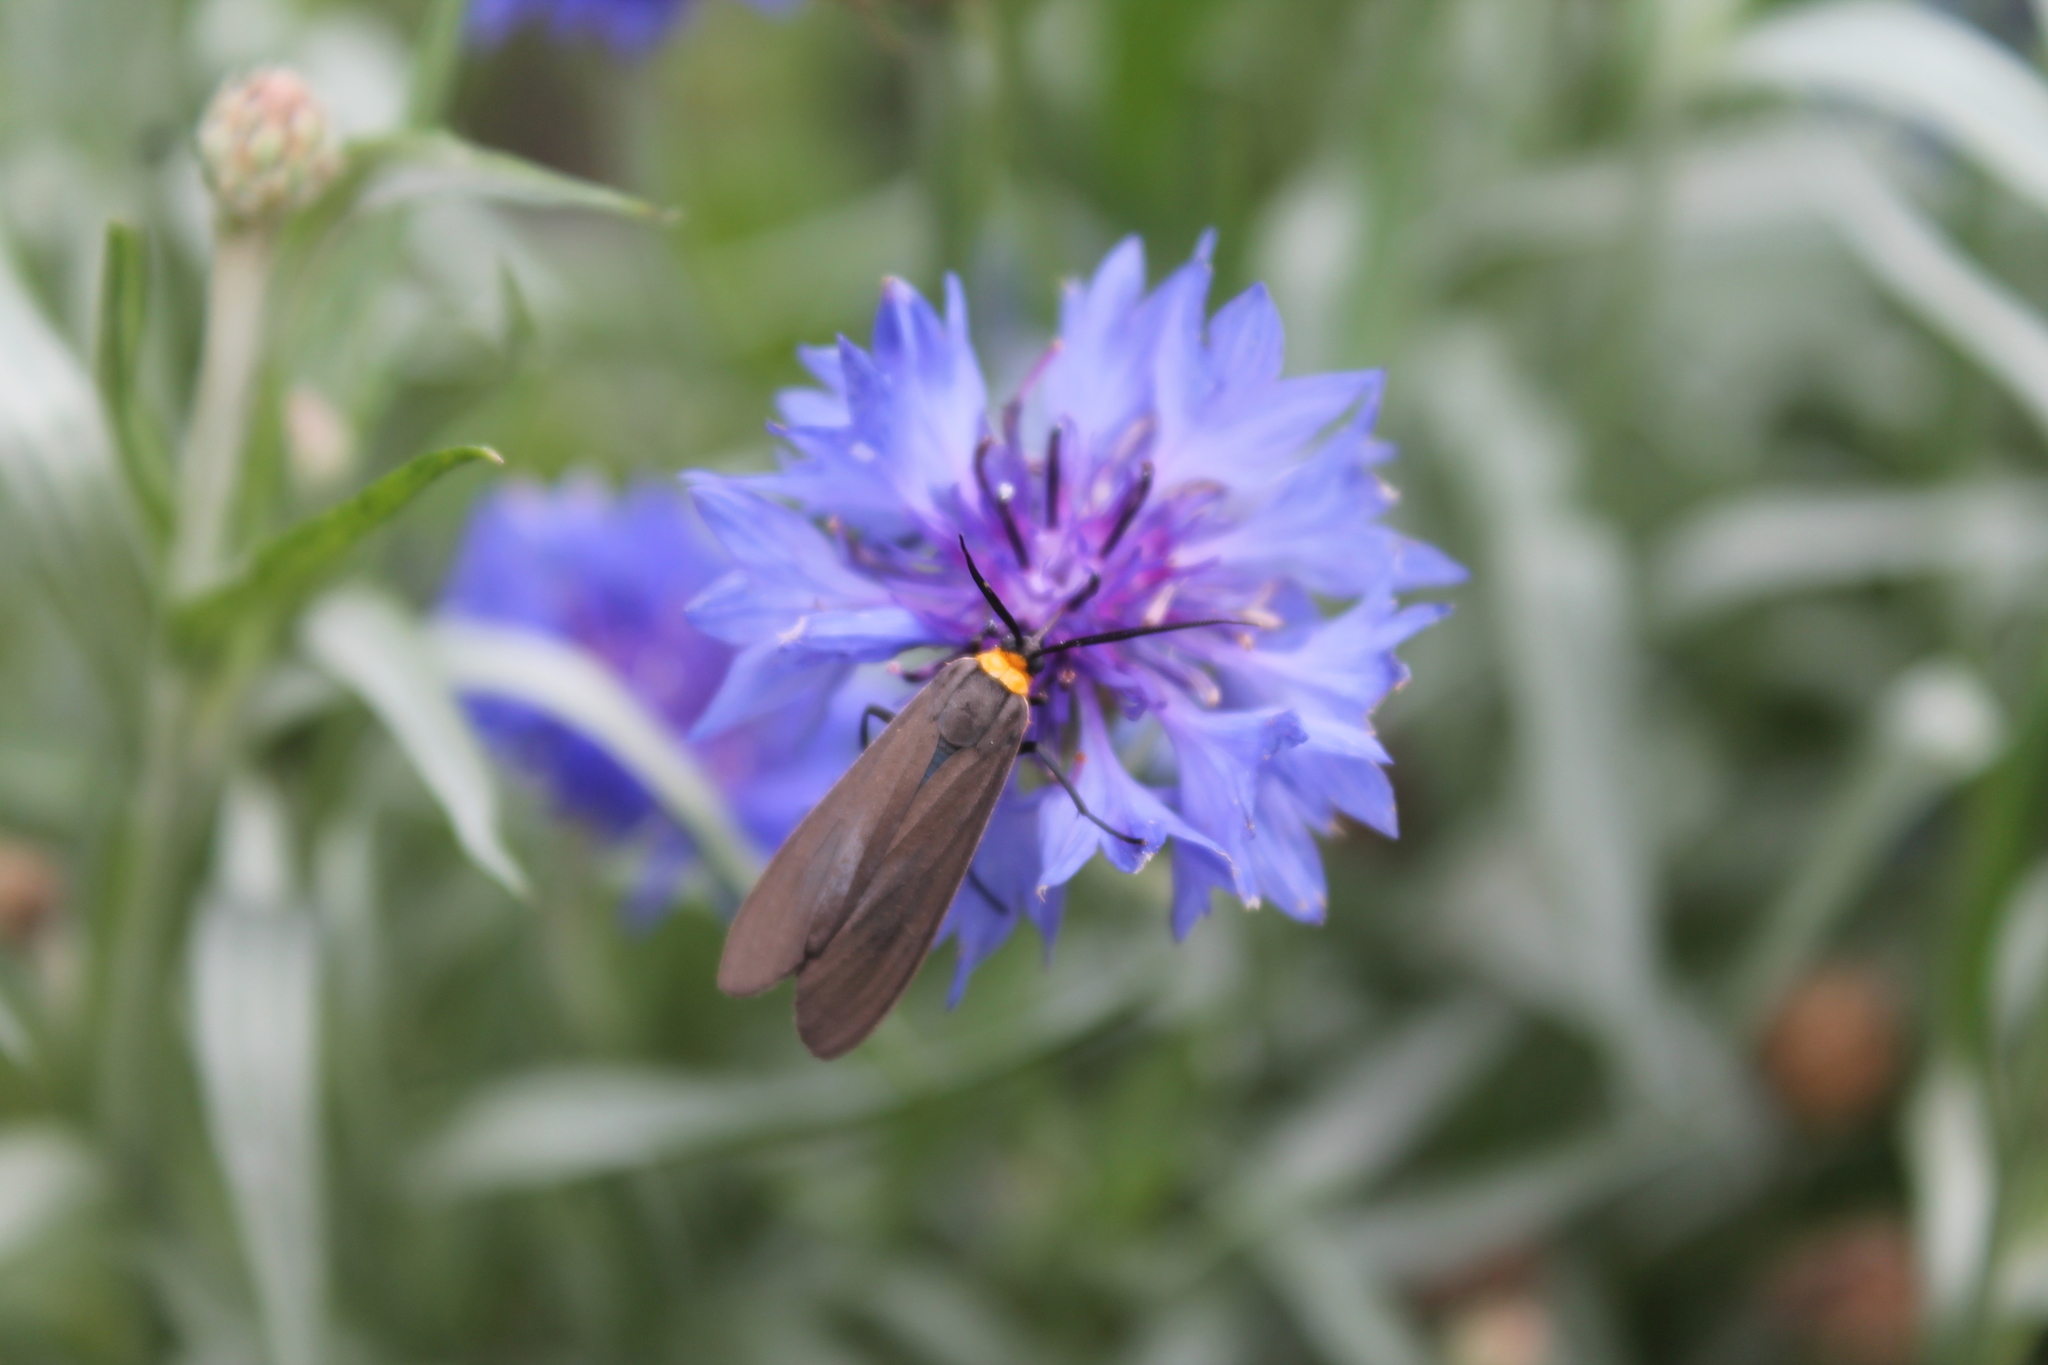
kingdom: Animalia
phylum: Arthropoda
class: Insecta
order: Lepidoptera
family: Erebidae
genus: Cisseps
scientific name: Cisseps fulvicollis
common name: Yellow-collared scape moth
